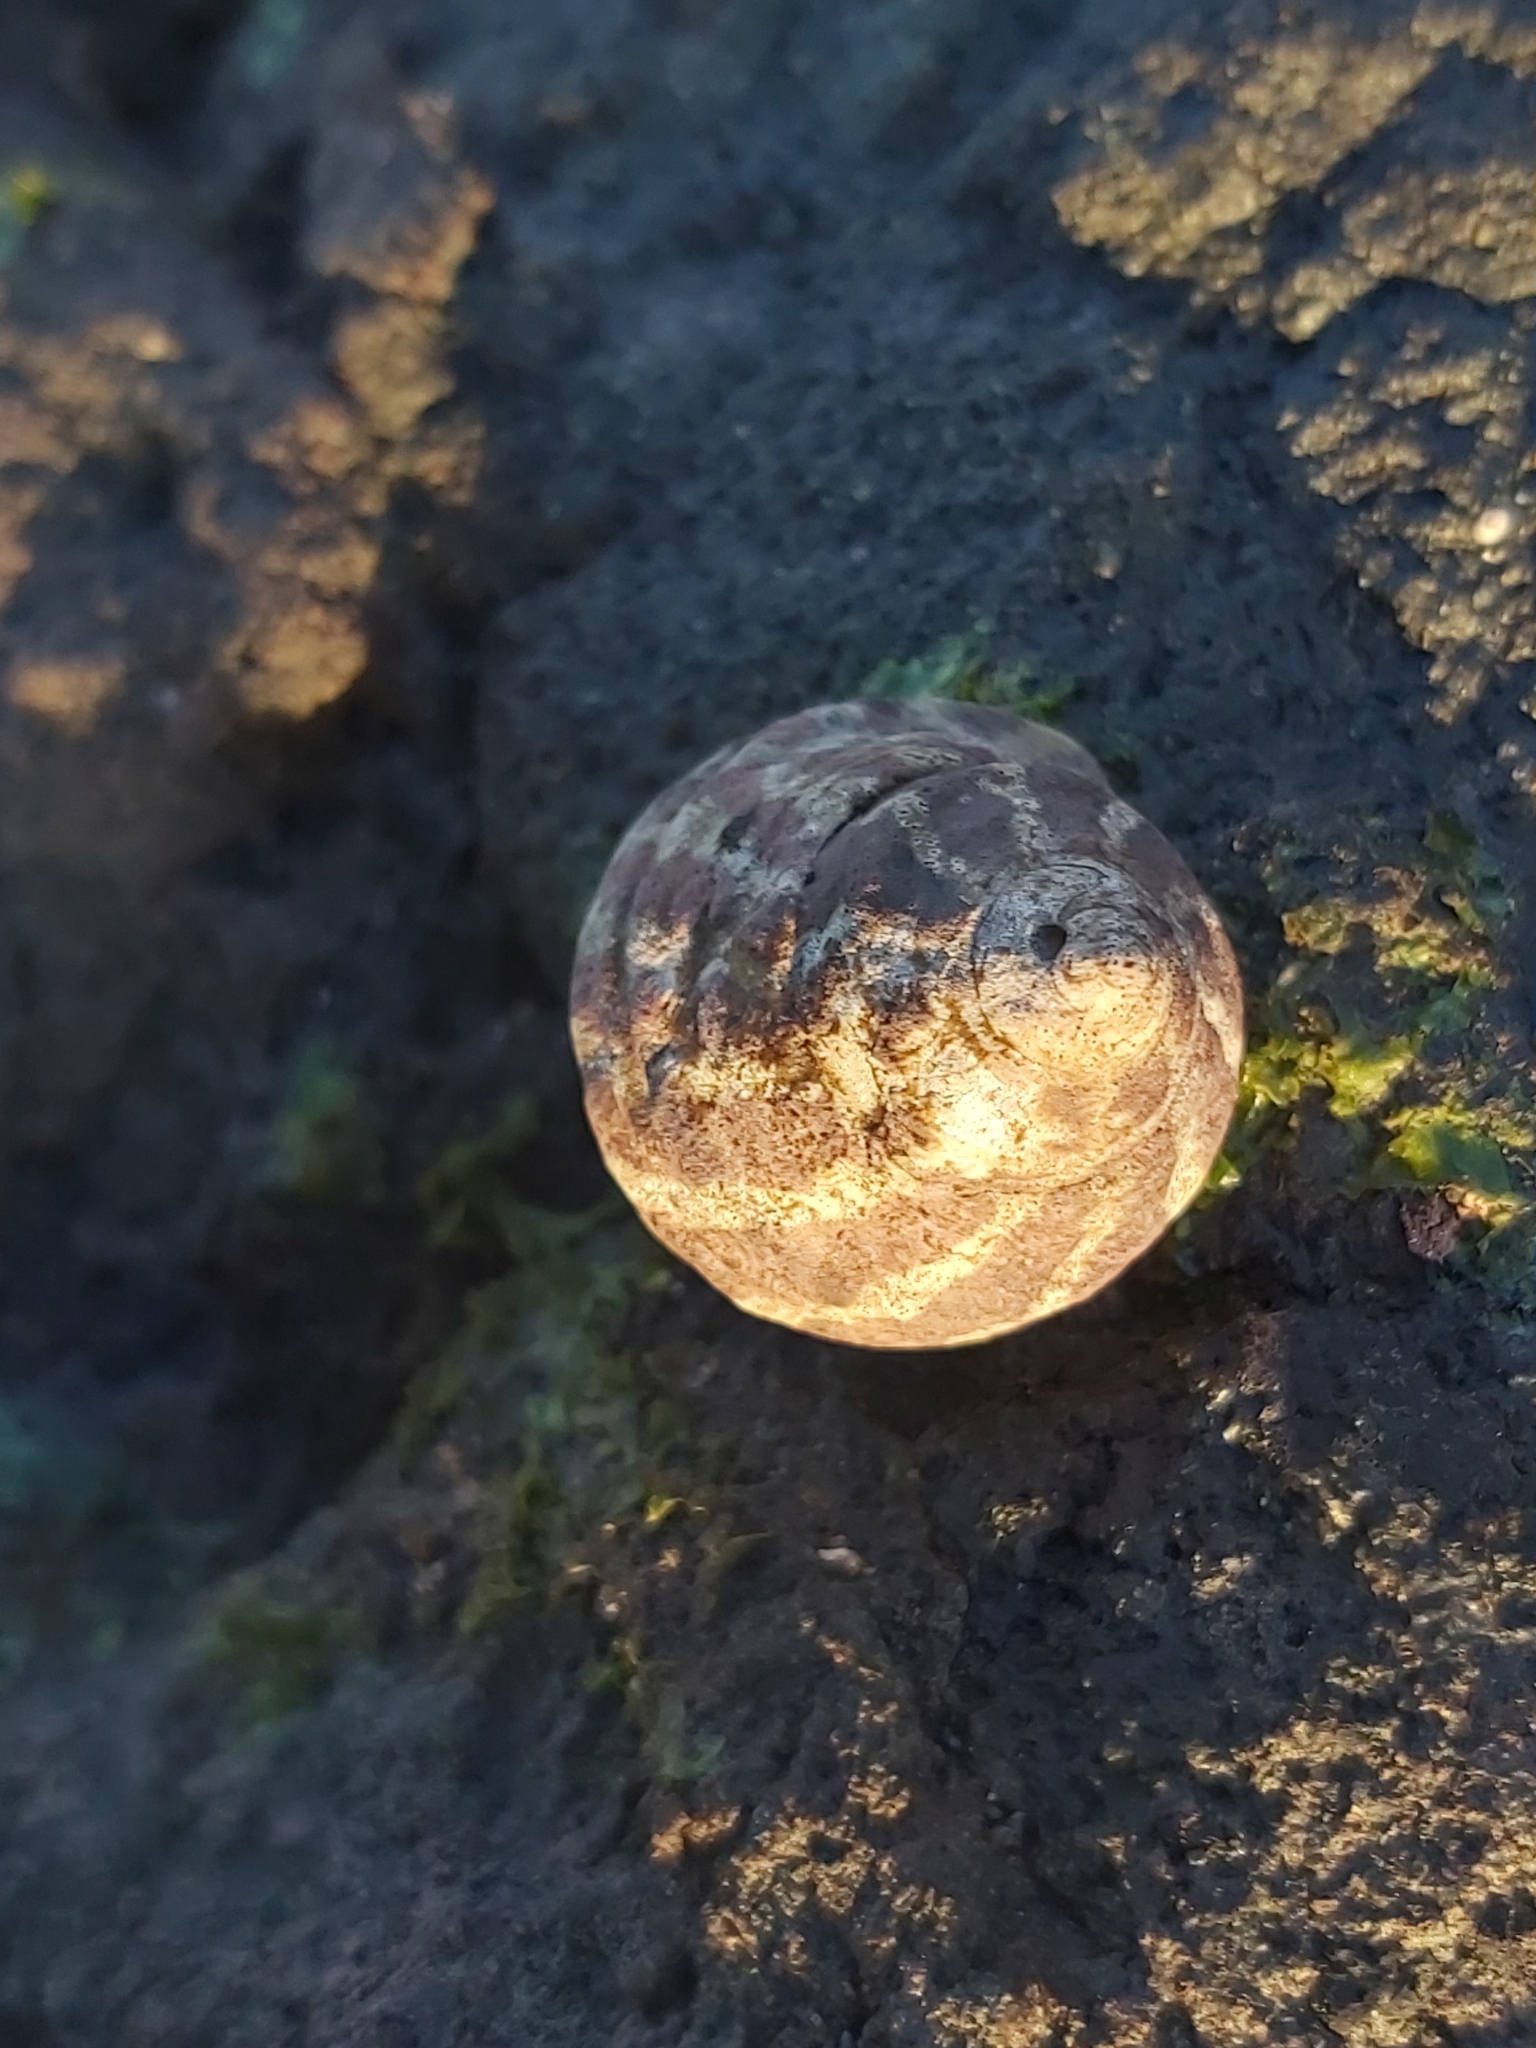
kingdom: Animalia
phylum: Mollusca
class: Gastropoda
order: Trochida
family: Trochidae
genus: Austrocochlea
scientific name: Austrocochlea porcata
